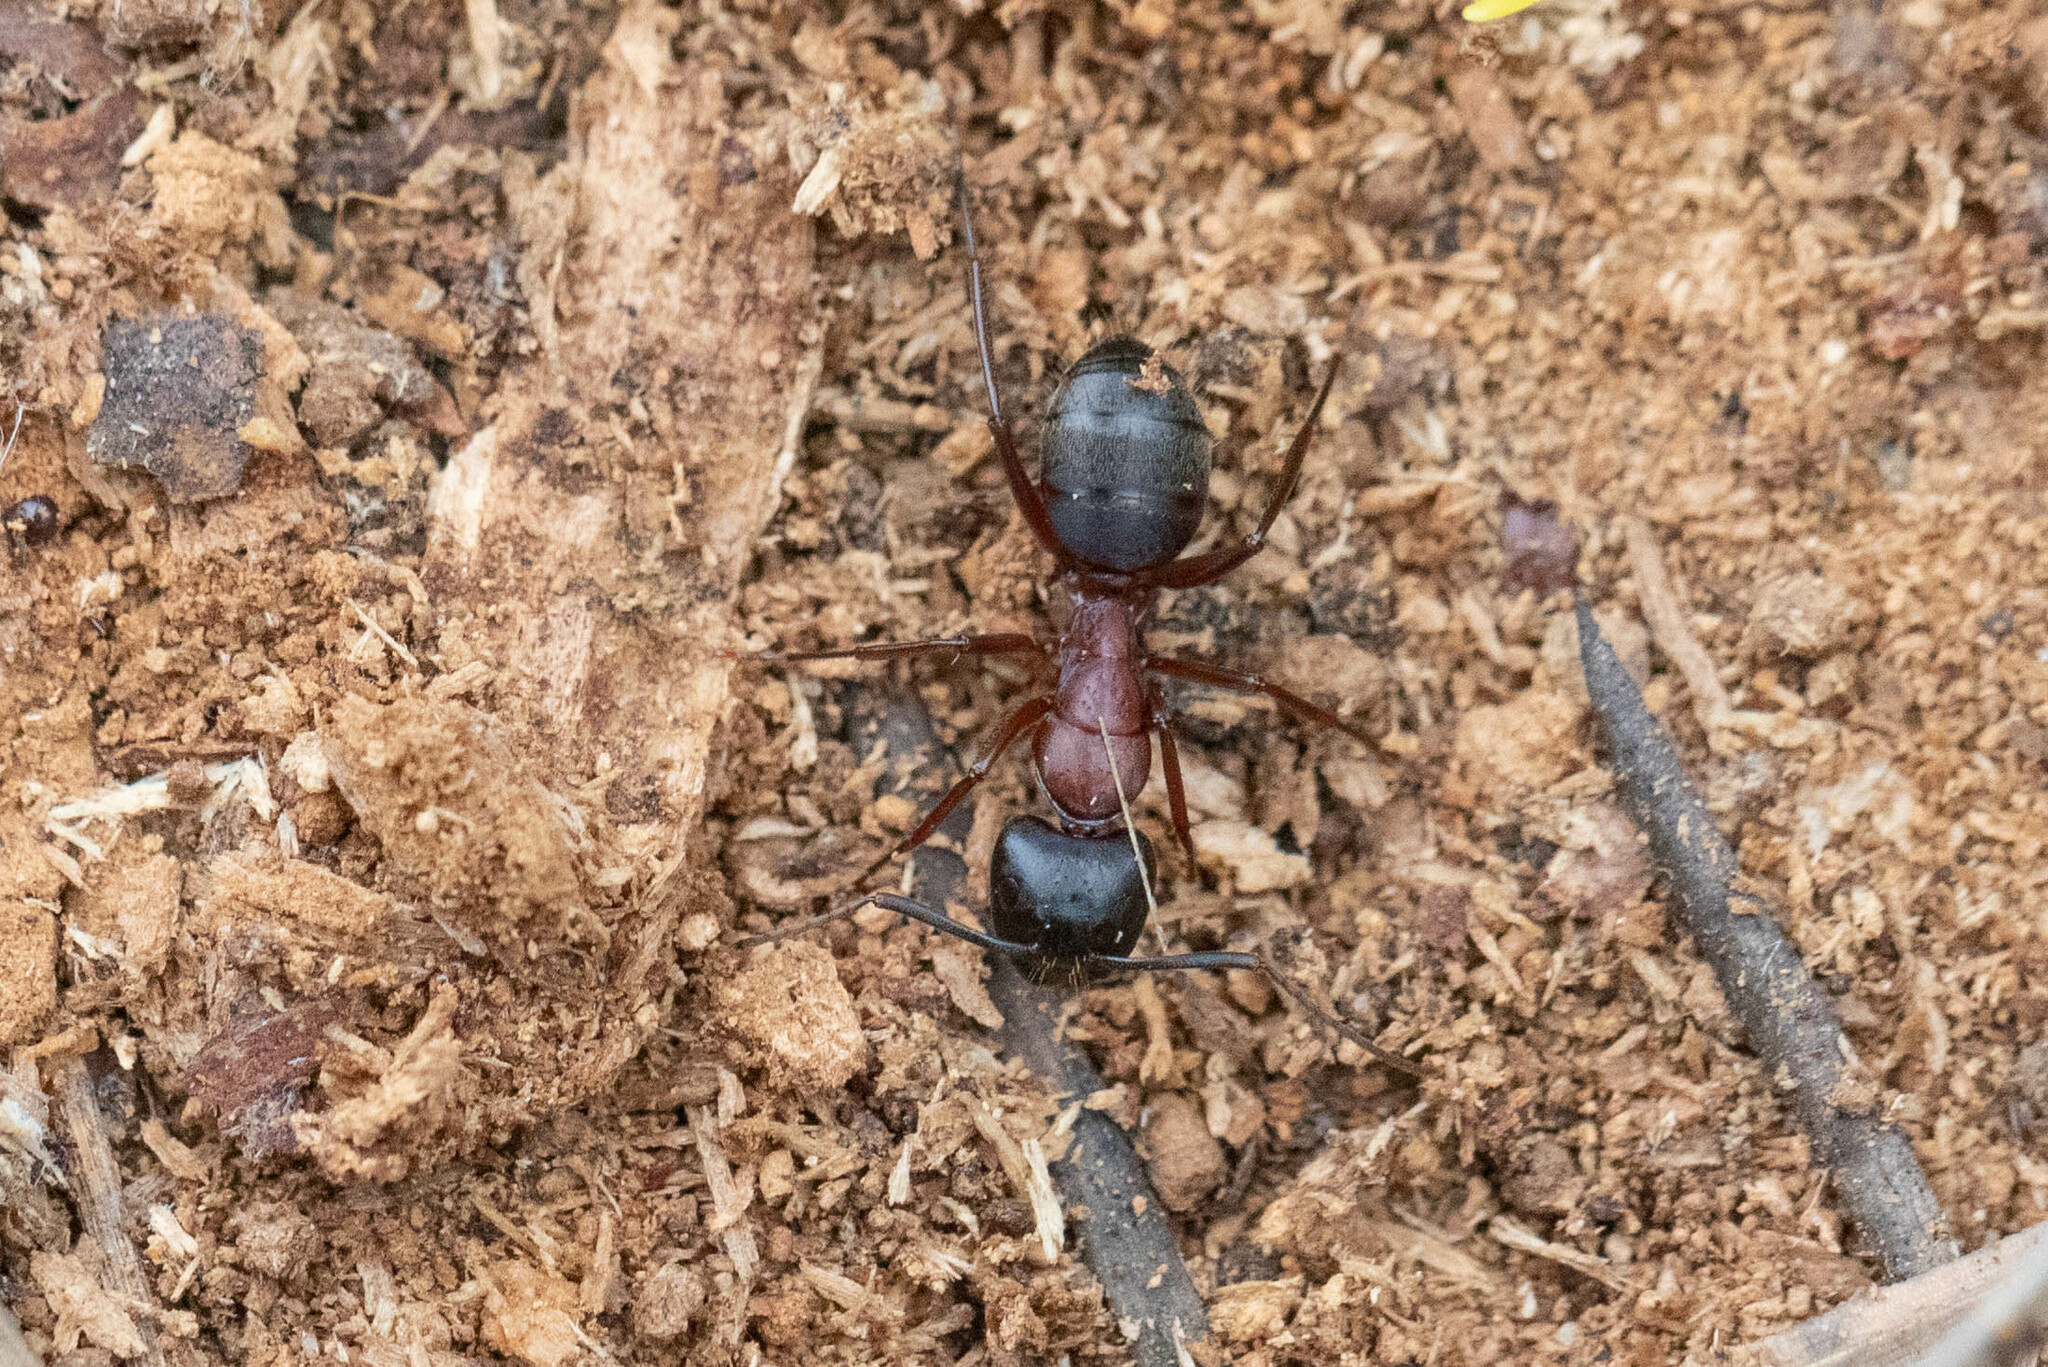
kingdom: Animalia
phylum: Arthropoda
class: Insecta
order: Hymenoptera
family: Formicidae
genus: Camponotus
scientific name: Camponotus vicinus
